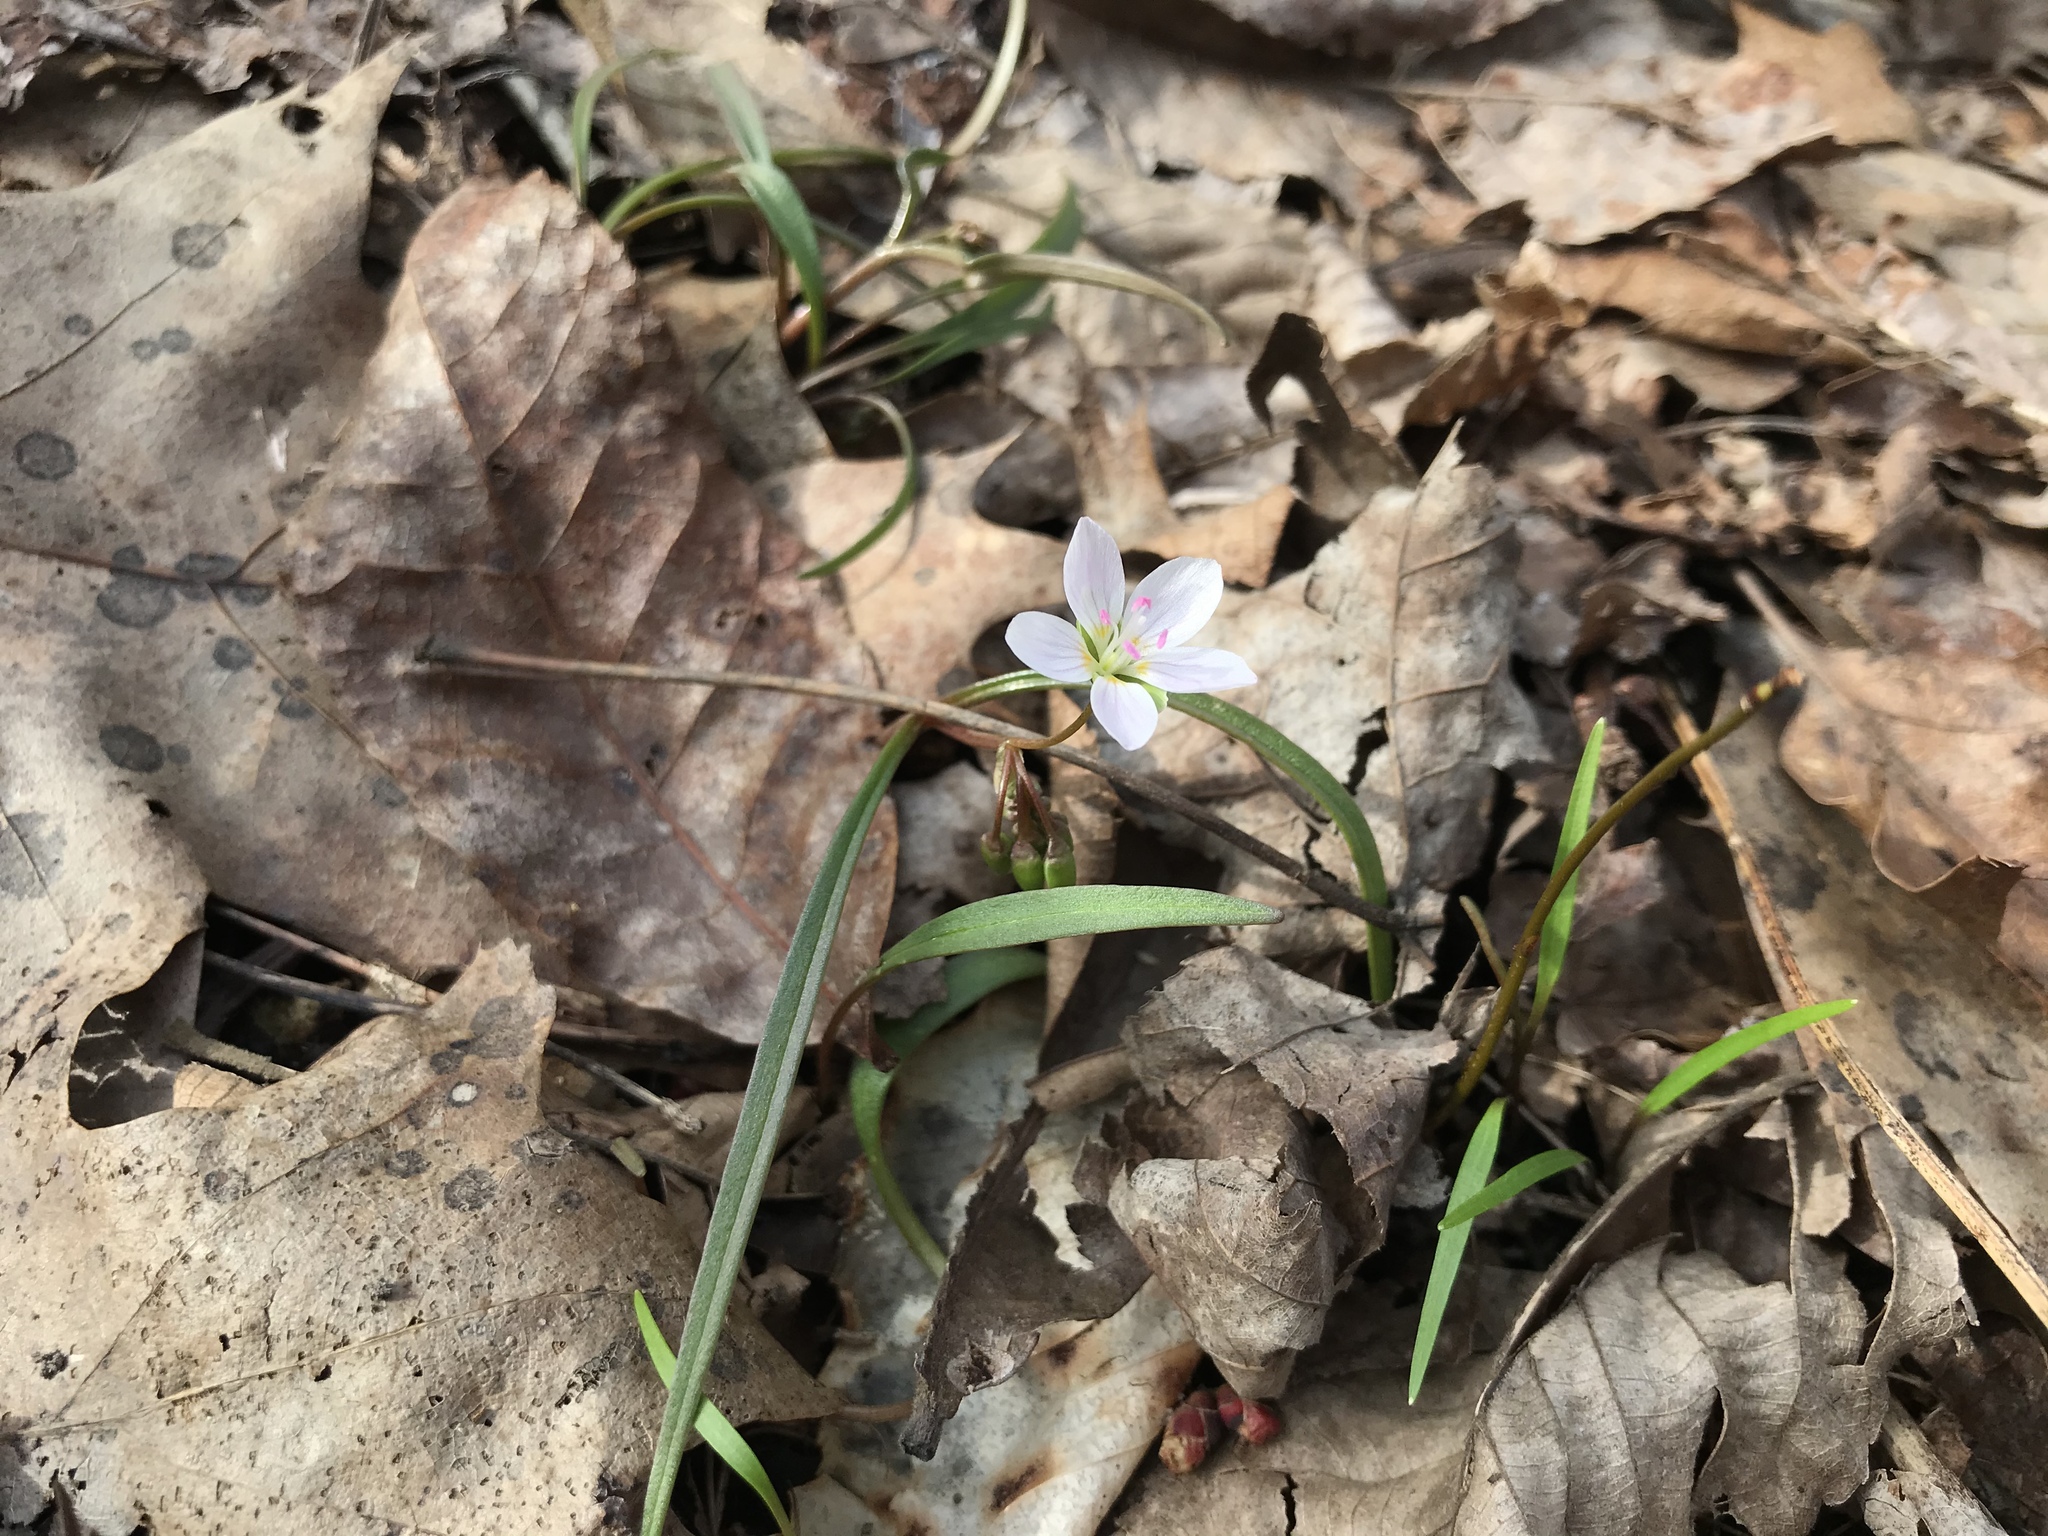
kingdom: Plantae
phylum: Tracheophyta
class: Magnoliopsida
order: Caryophyllales
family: Montiaceae
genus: Claytonia
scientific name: Claytonia virginica
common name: Virginia springbeauty
